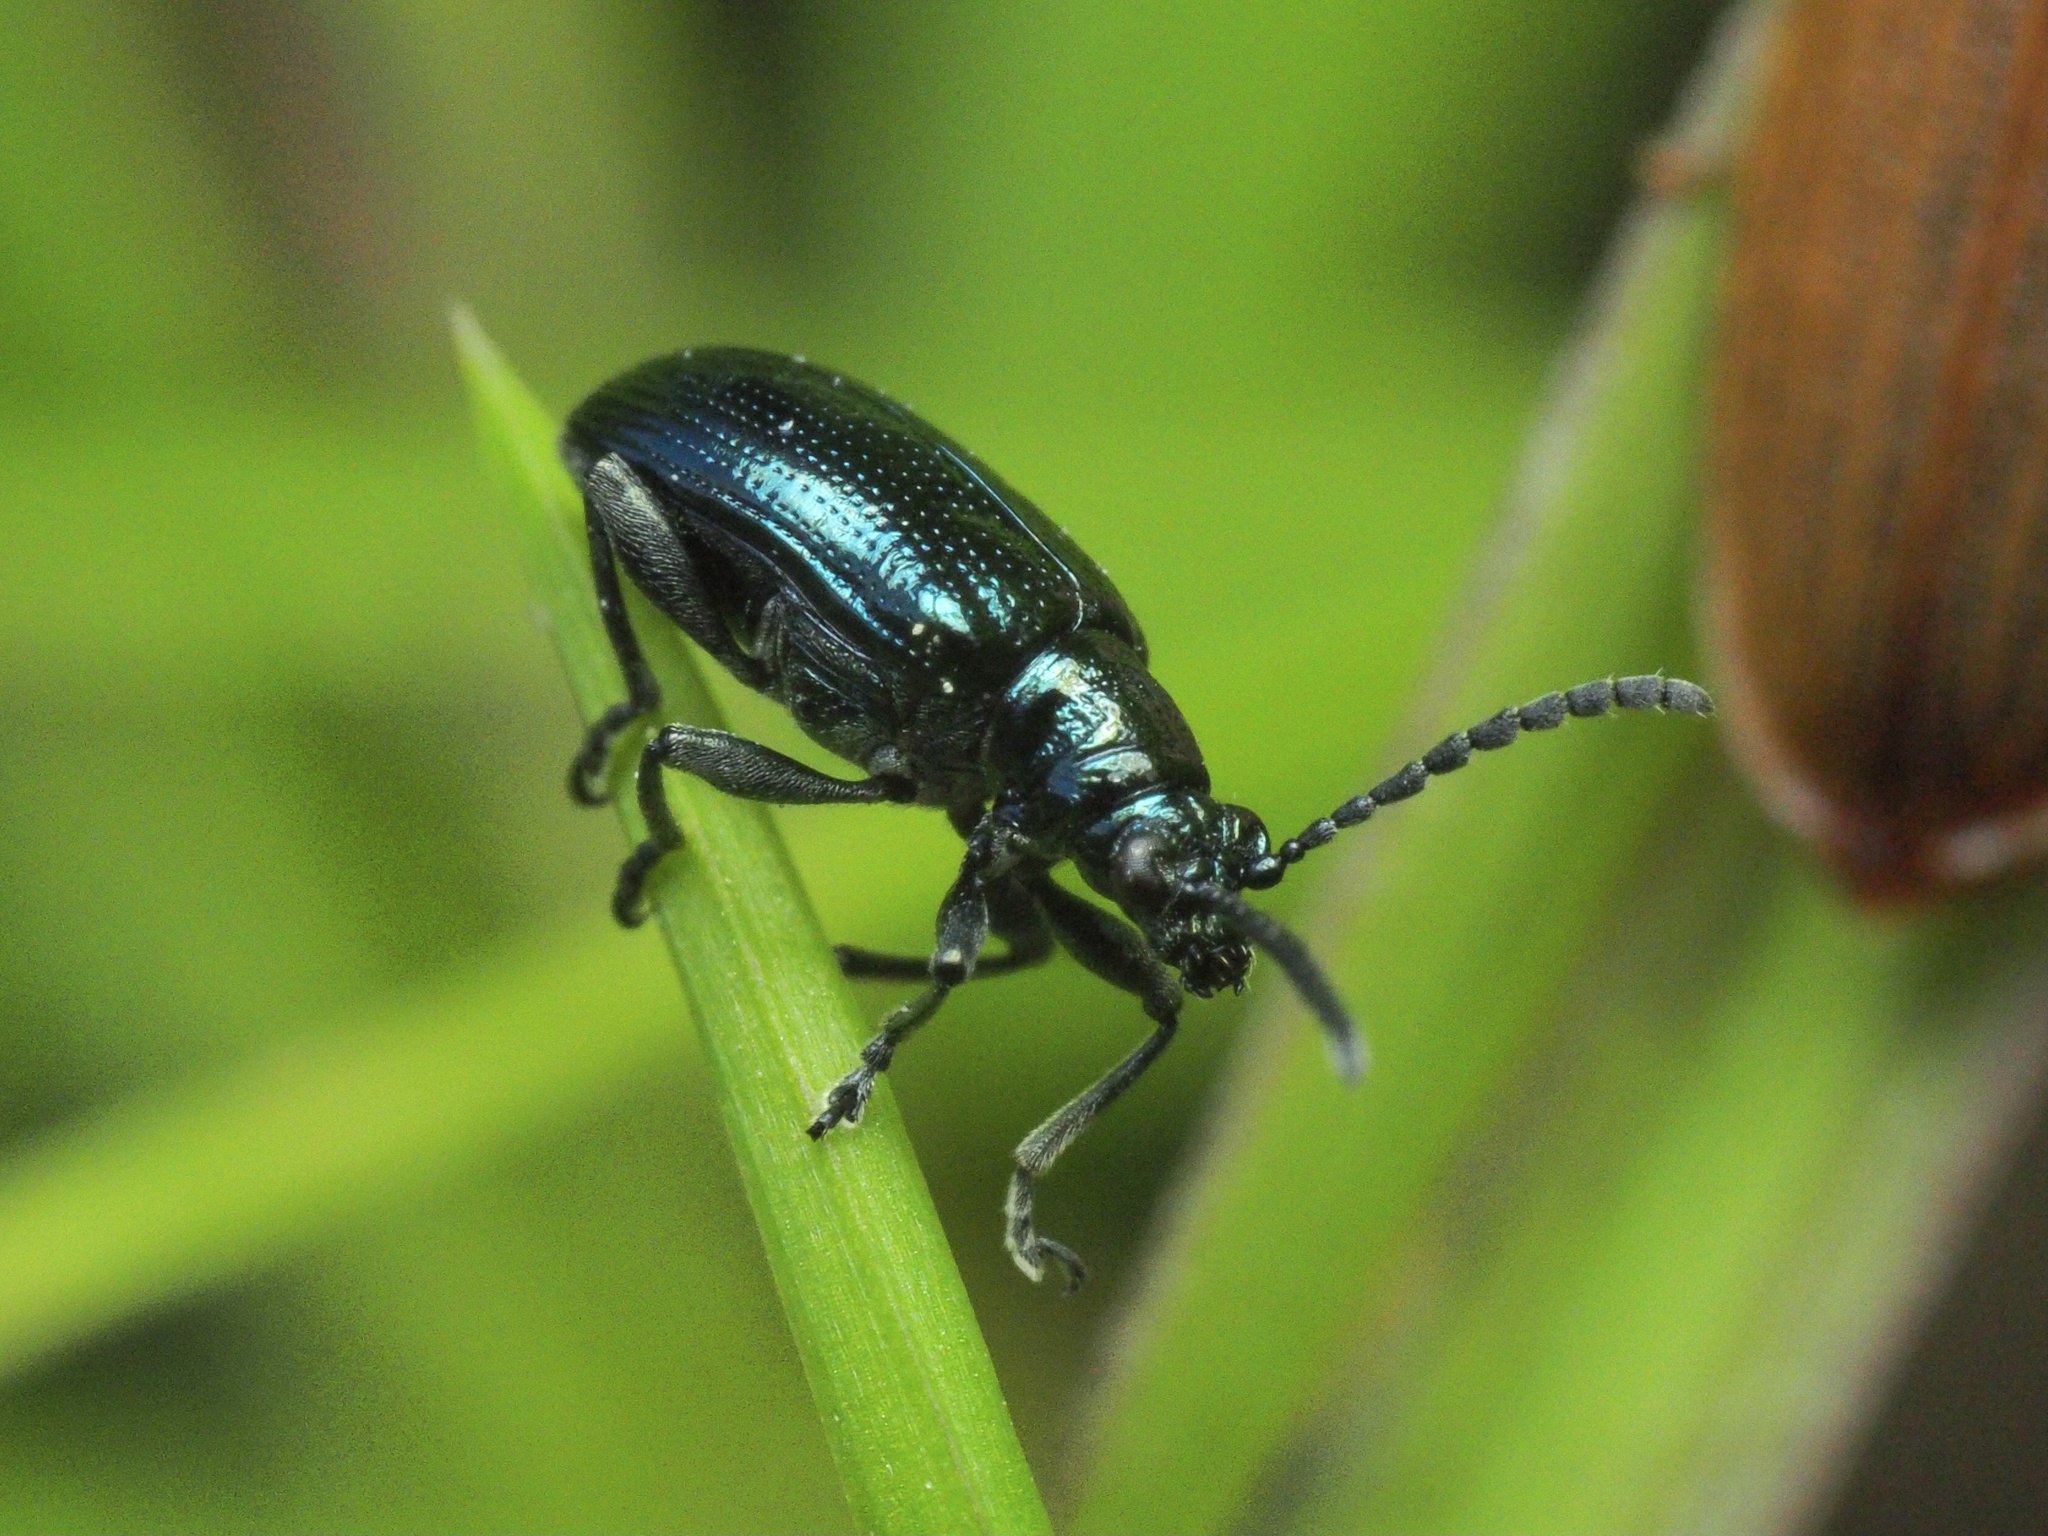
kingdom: Animalia
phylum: Arthropoda
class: Insecta
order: Coleoptera
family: Chrysomelidae
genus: Lema
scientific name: Lema cyanella
